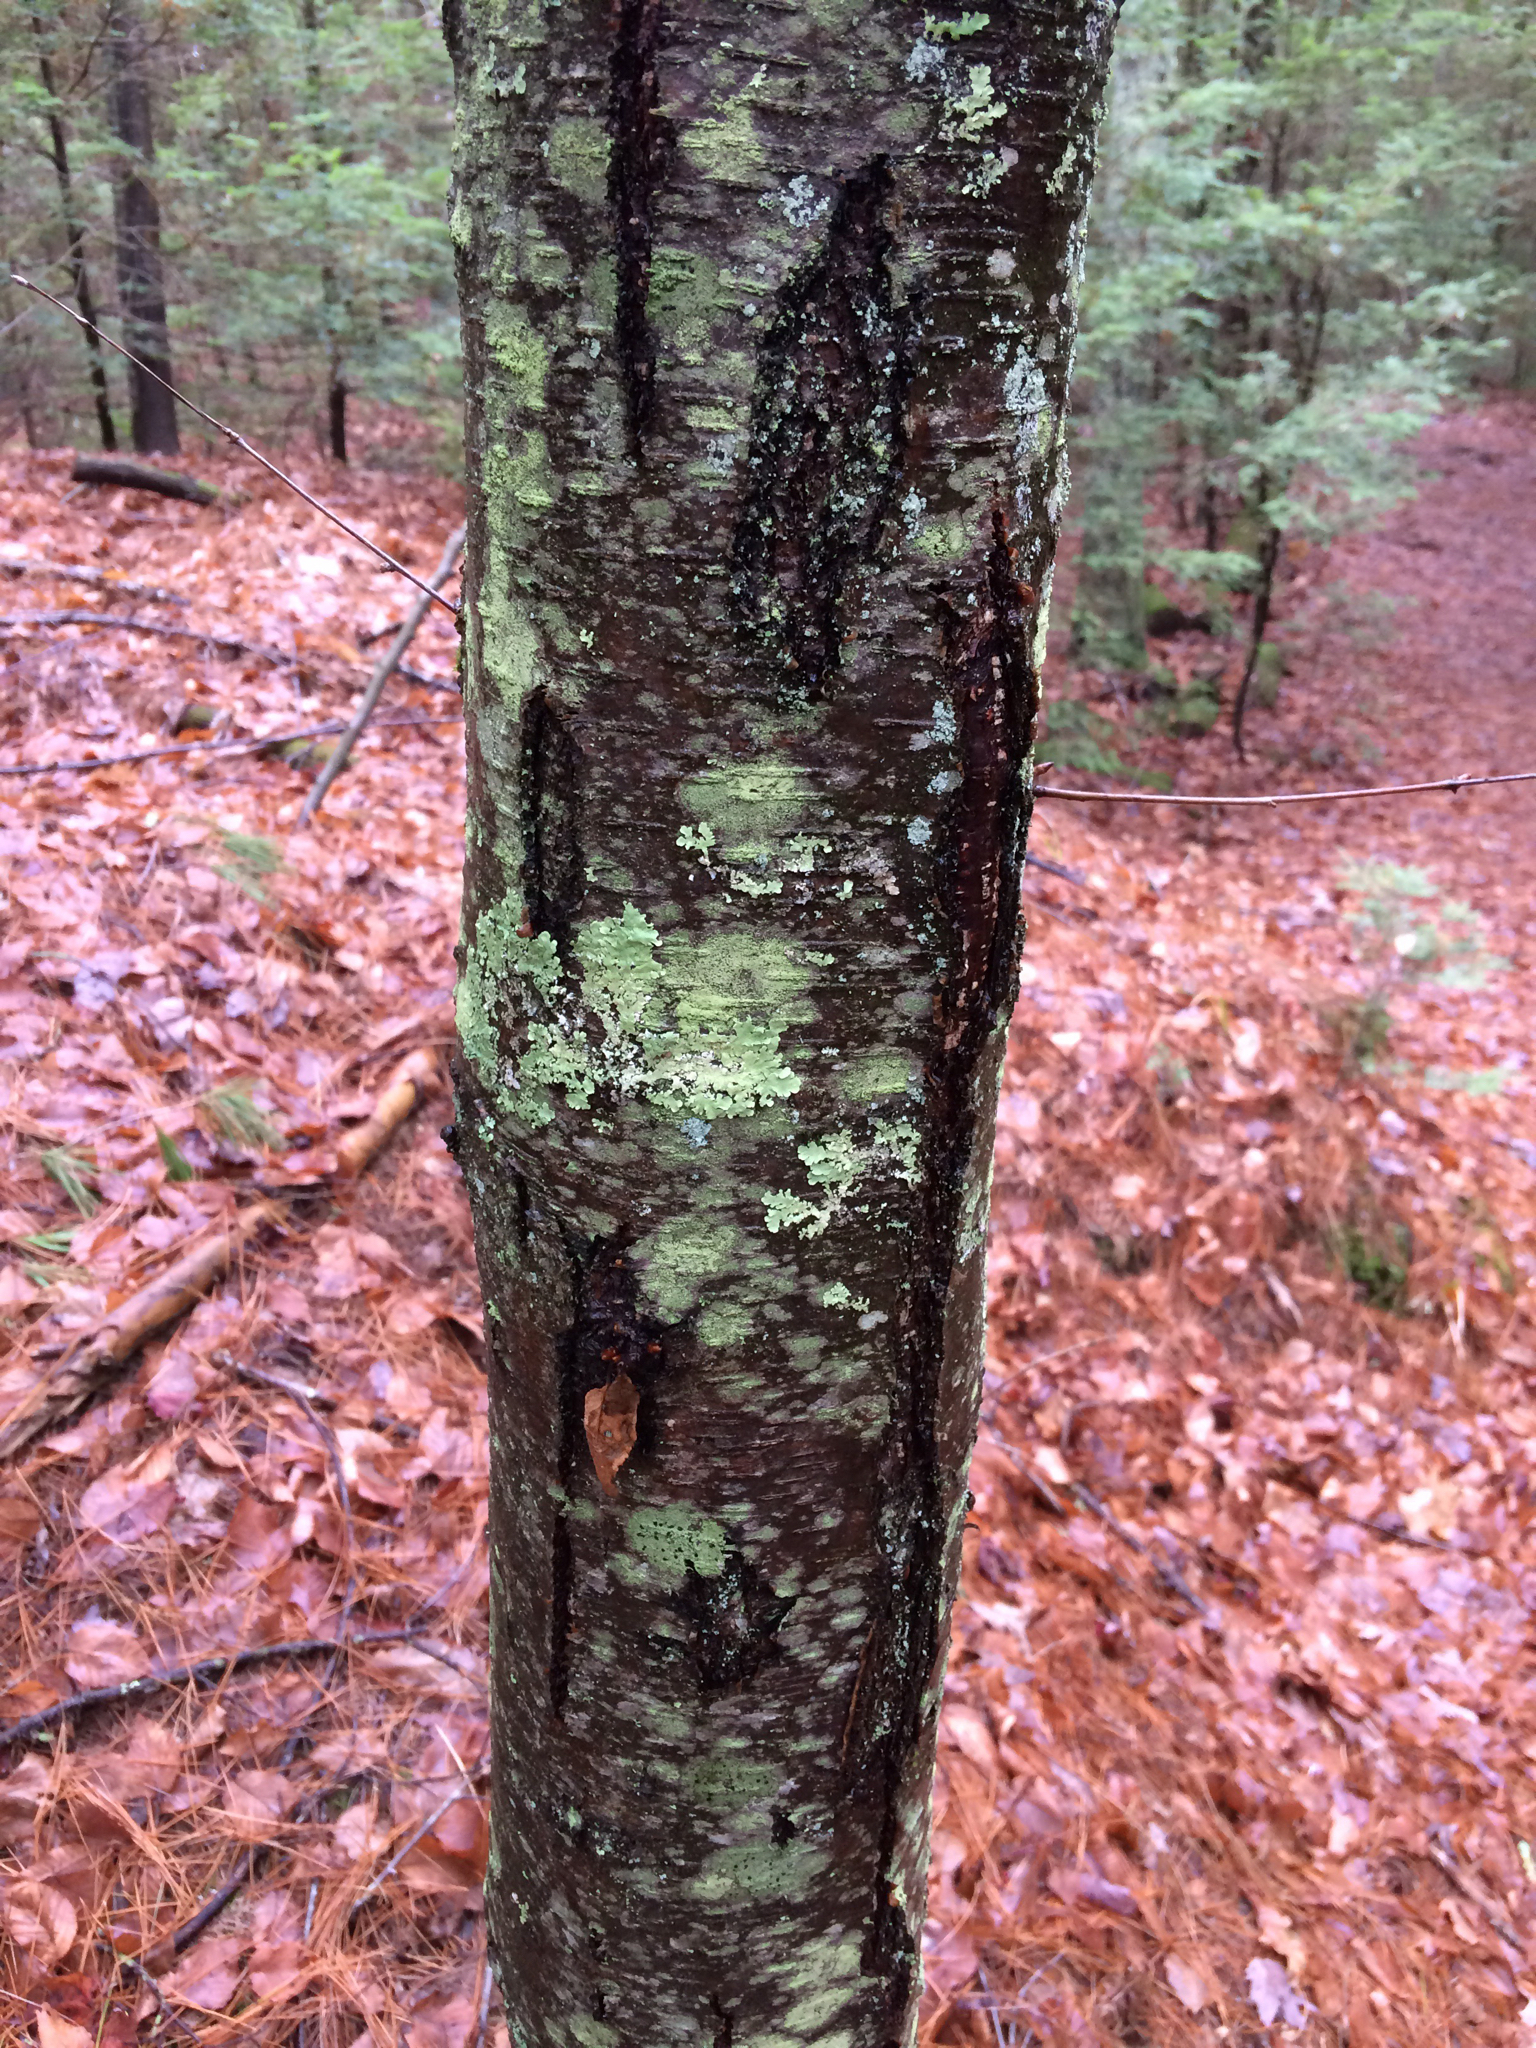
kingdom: Plantae
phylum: Tracheophyta
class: Magnoliopsida
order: Fagales
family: Betulaceae
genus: Betula
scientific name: Betula lenta
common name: Black birch
